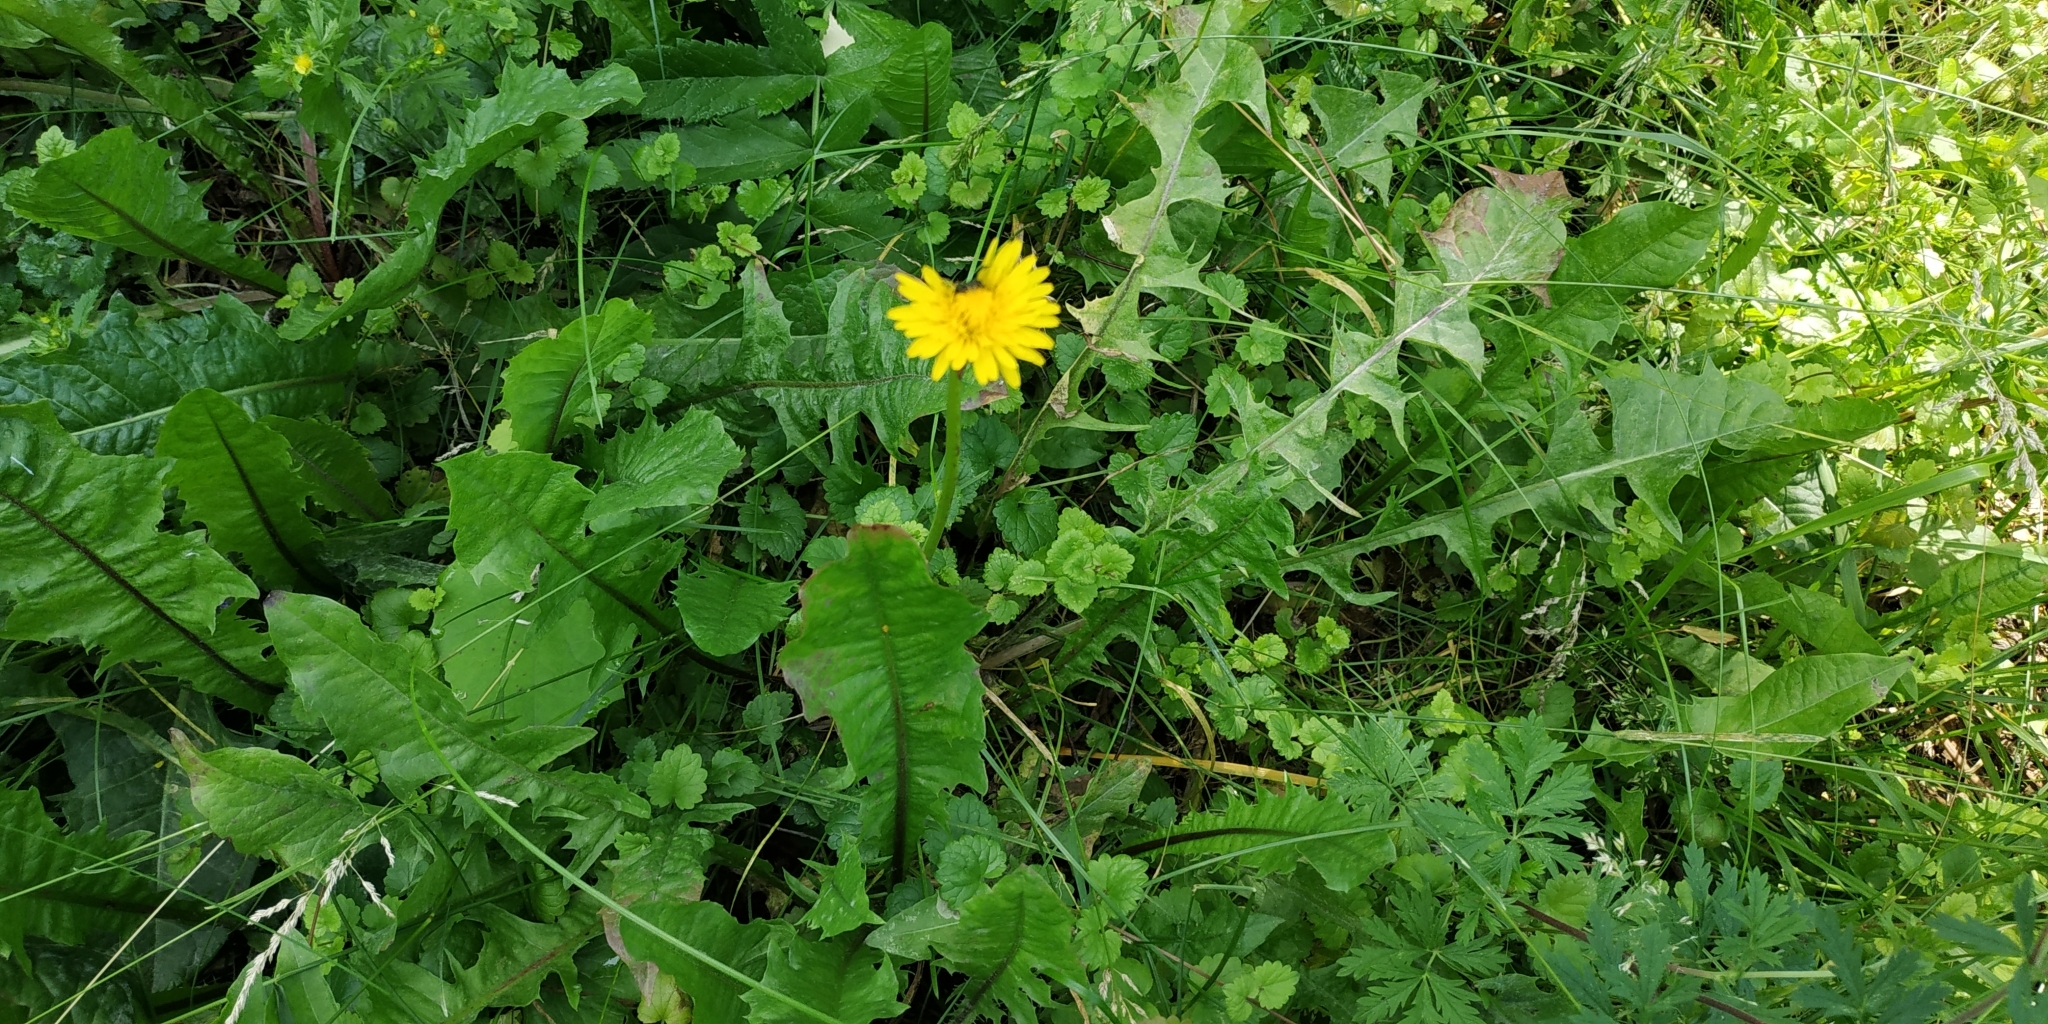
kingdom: Plantae
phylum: Tracheophyta
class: Magnoliopsida
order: Asterales
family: Asteraceae
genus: Taraxacum
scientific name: Taraxacum officinale
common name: Common dandelion
